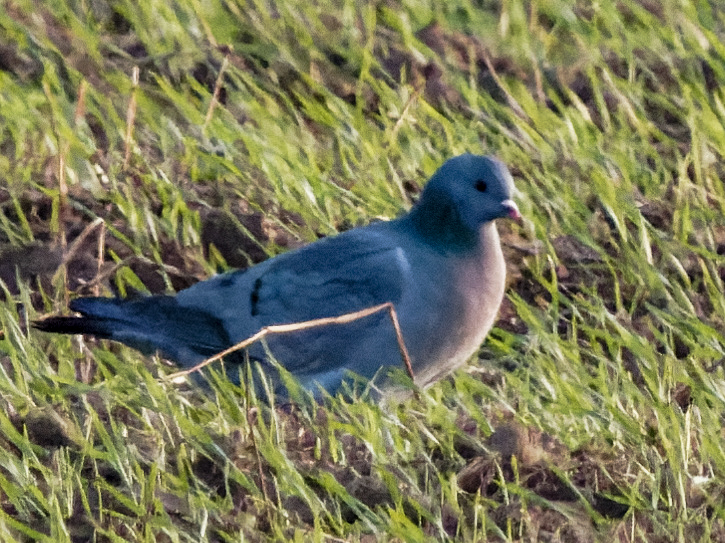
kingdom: Animalia
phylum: Chordata
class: Aves
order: Columbiformes
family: Columbidae
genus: Columba
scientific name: Columba oenas
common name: Stock dove
